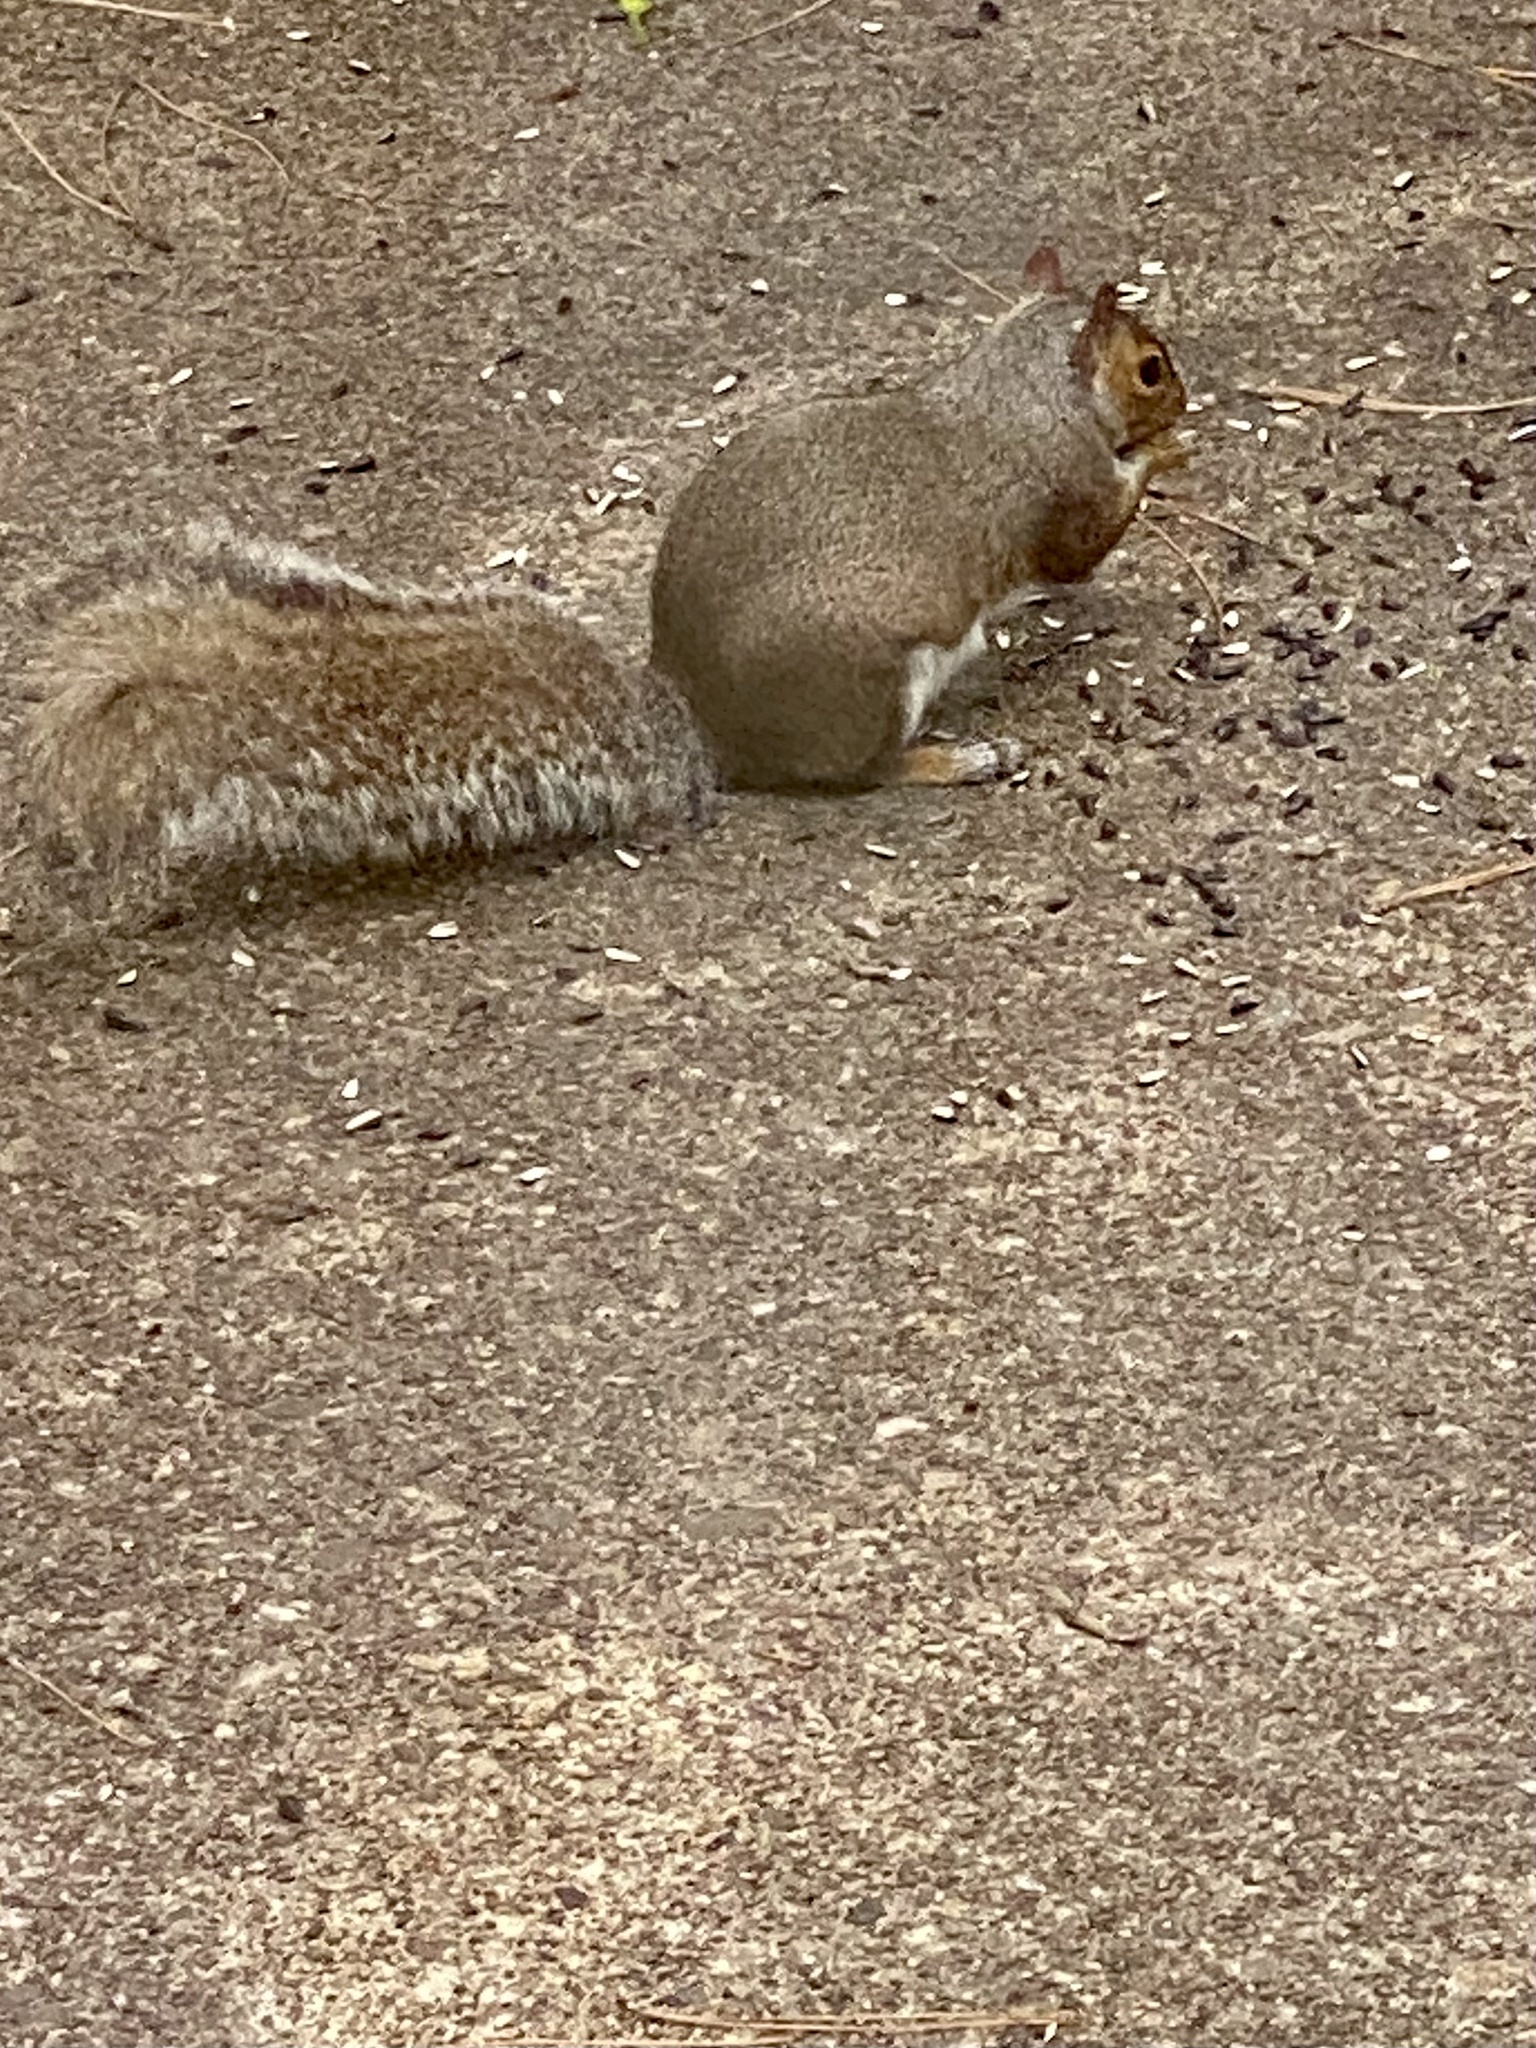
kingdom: Animalia
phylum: Chordata
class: Mammalia
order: Rodentia
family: Sciuridae
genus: Sciurus
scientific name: Sciurus carolinensis
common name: Eastern gray squirrel
